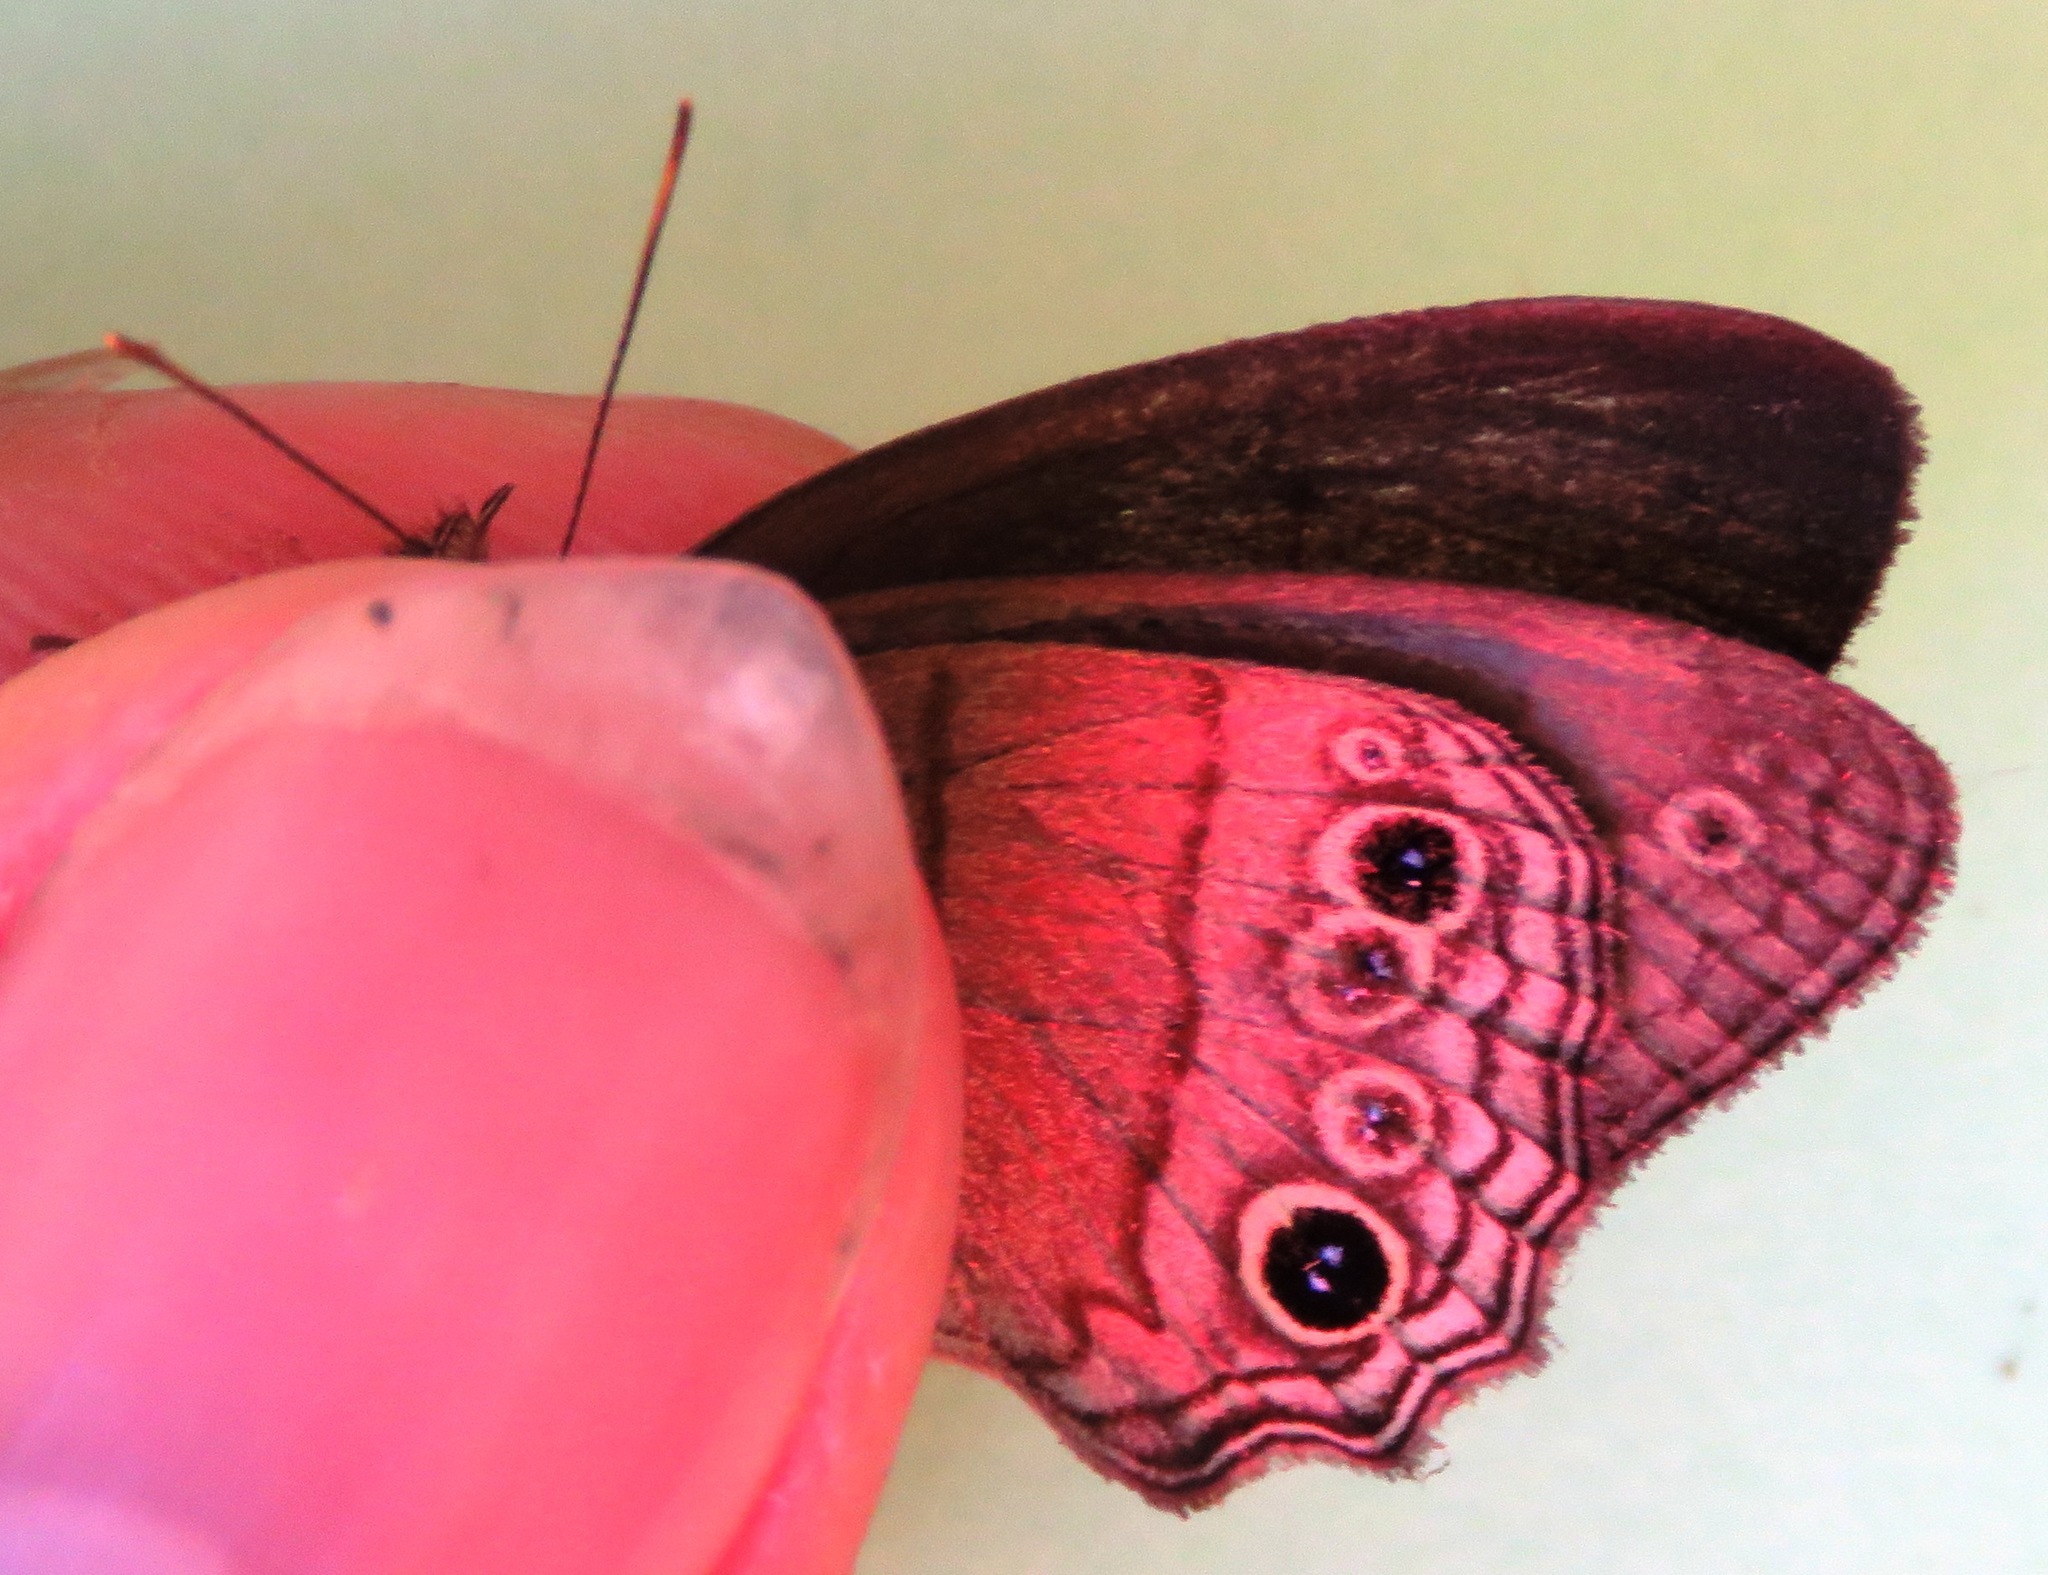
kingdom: Animalia
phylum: Arthropoda
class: Insecta
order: Lepidoptera
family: Nymphalidae
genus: Vareuptychia
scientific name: Vareuptychia similis
